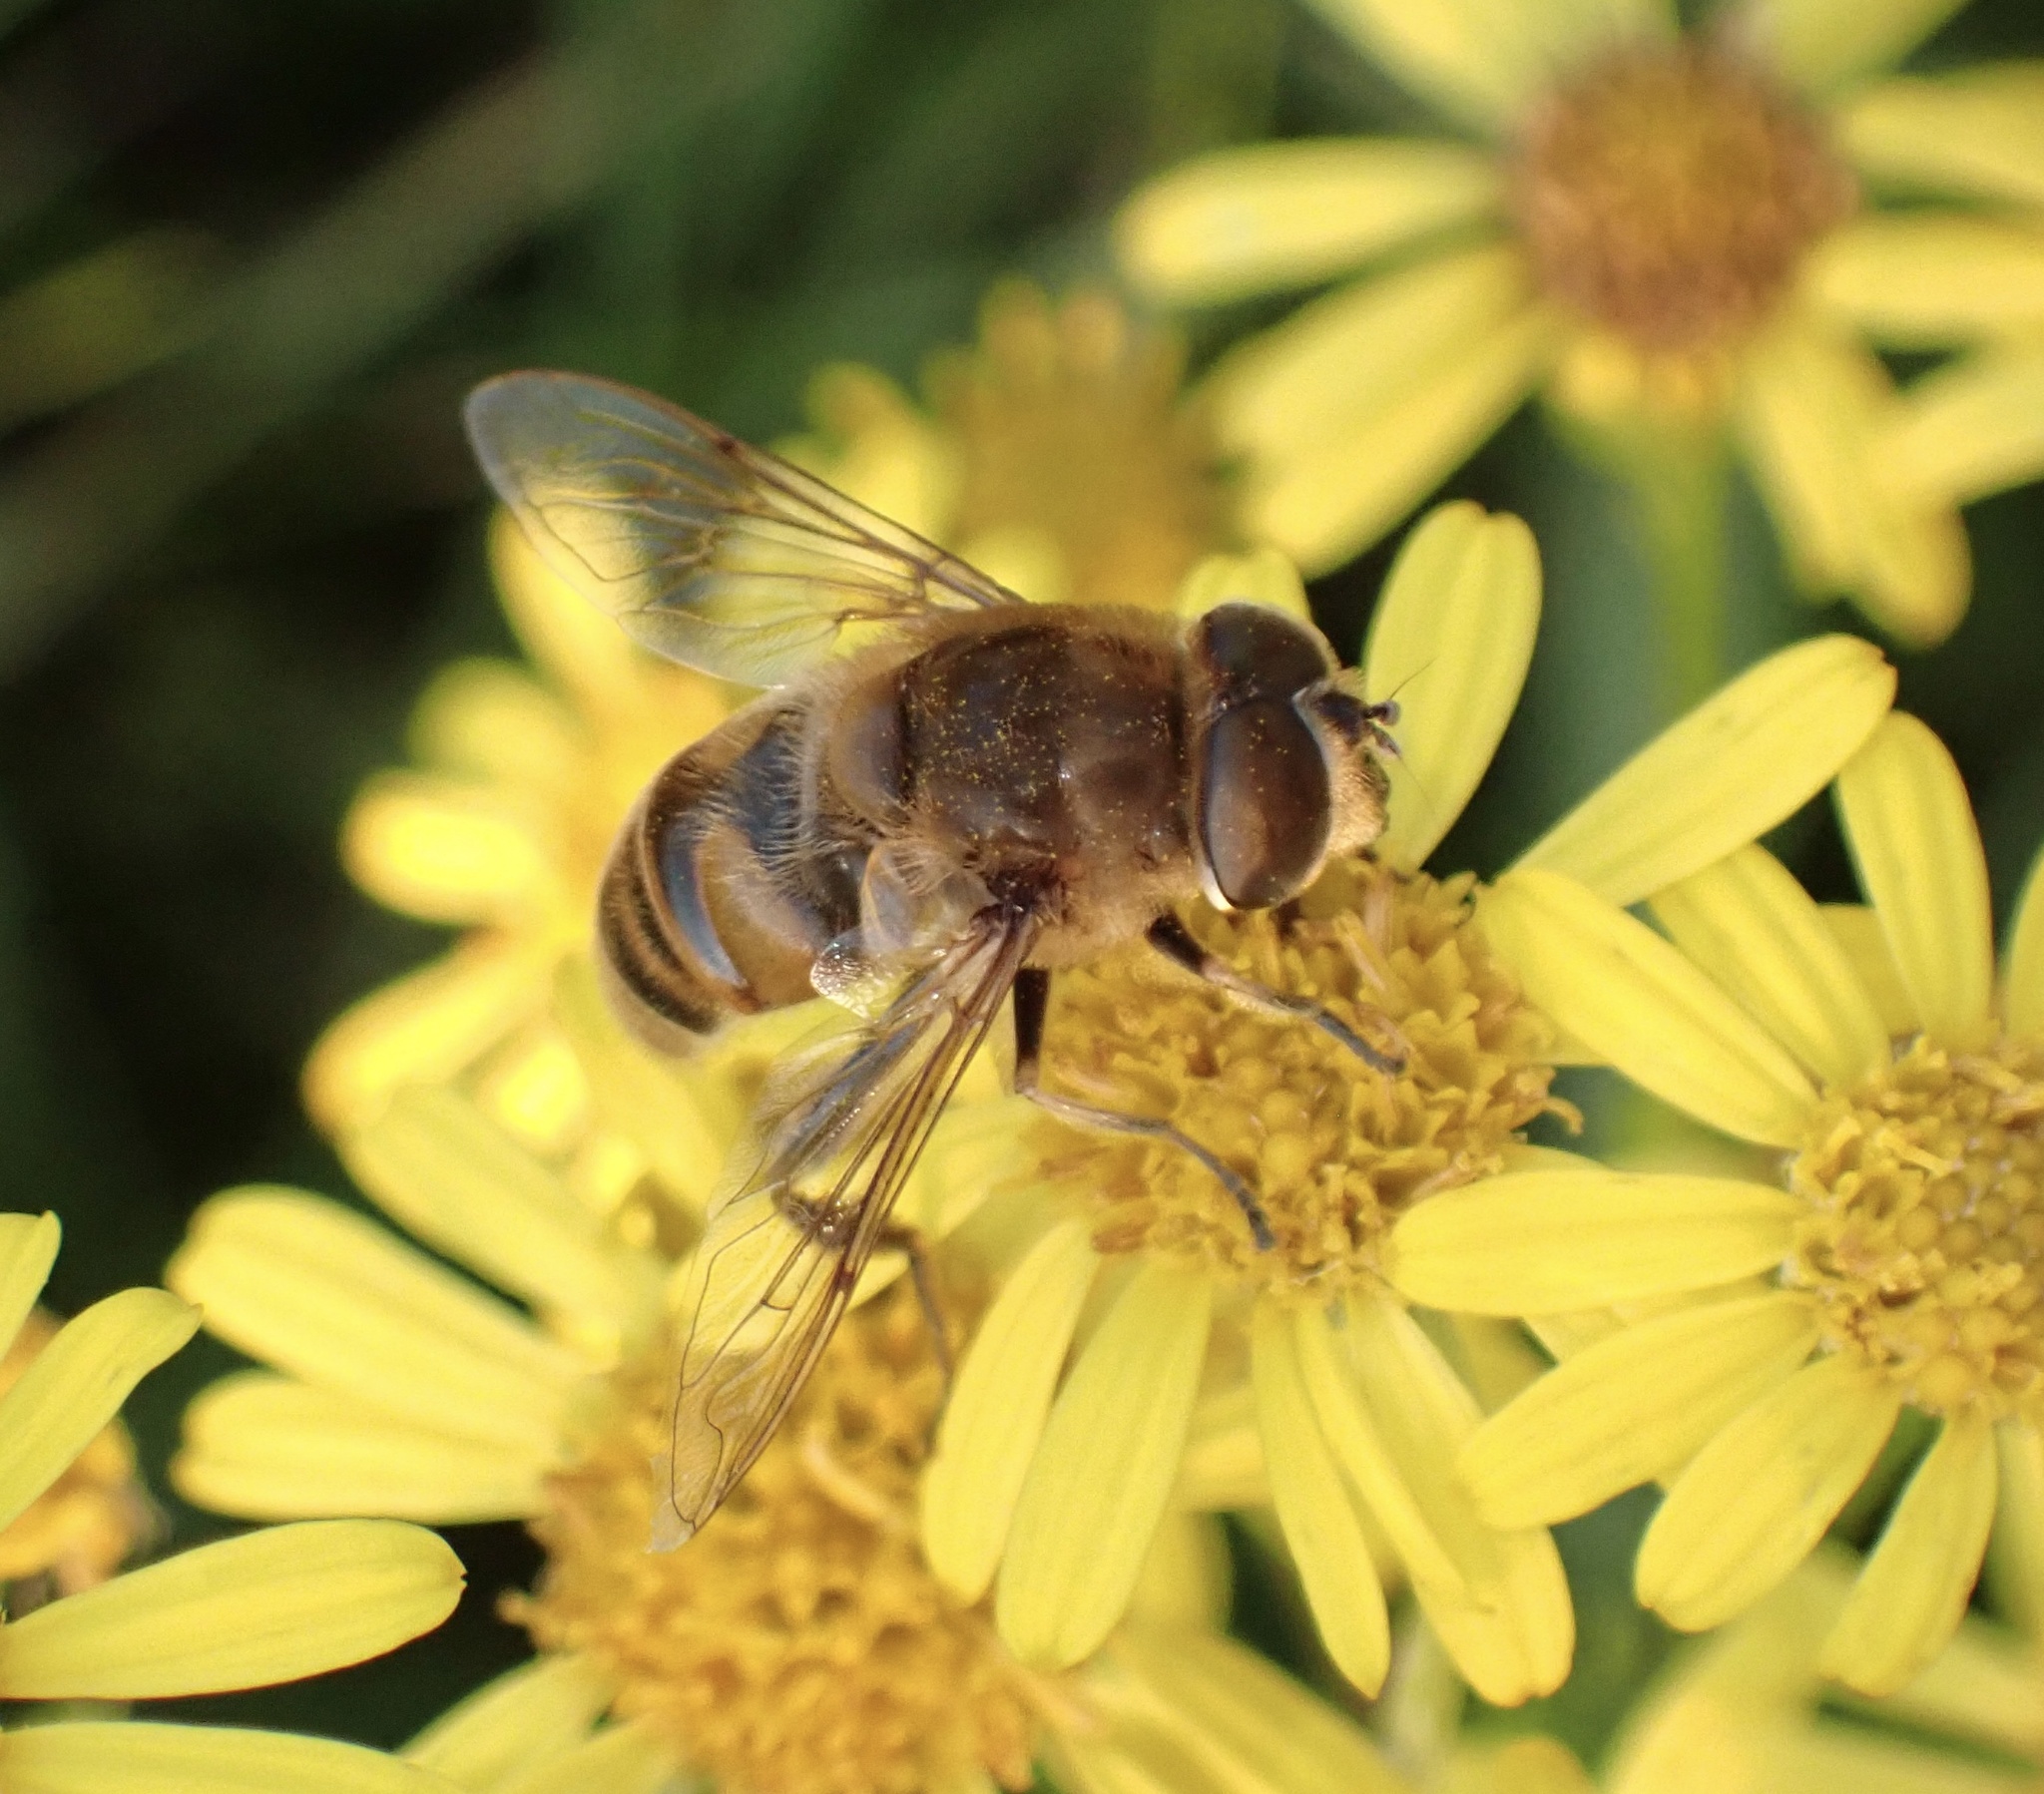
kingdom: Animalia
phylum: Arthropoda
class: Insecta
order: Diptera
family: Syrphidae
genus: Eristalis
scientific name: Eristalis tenax
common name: Drone fly
